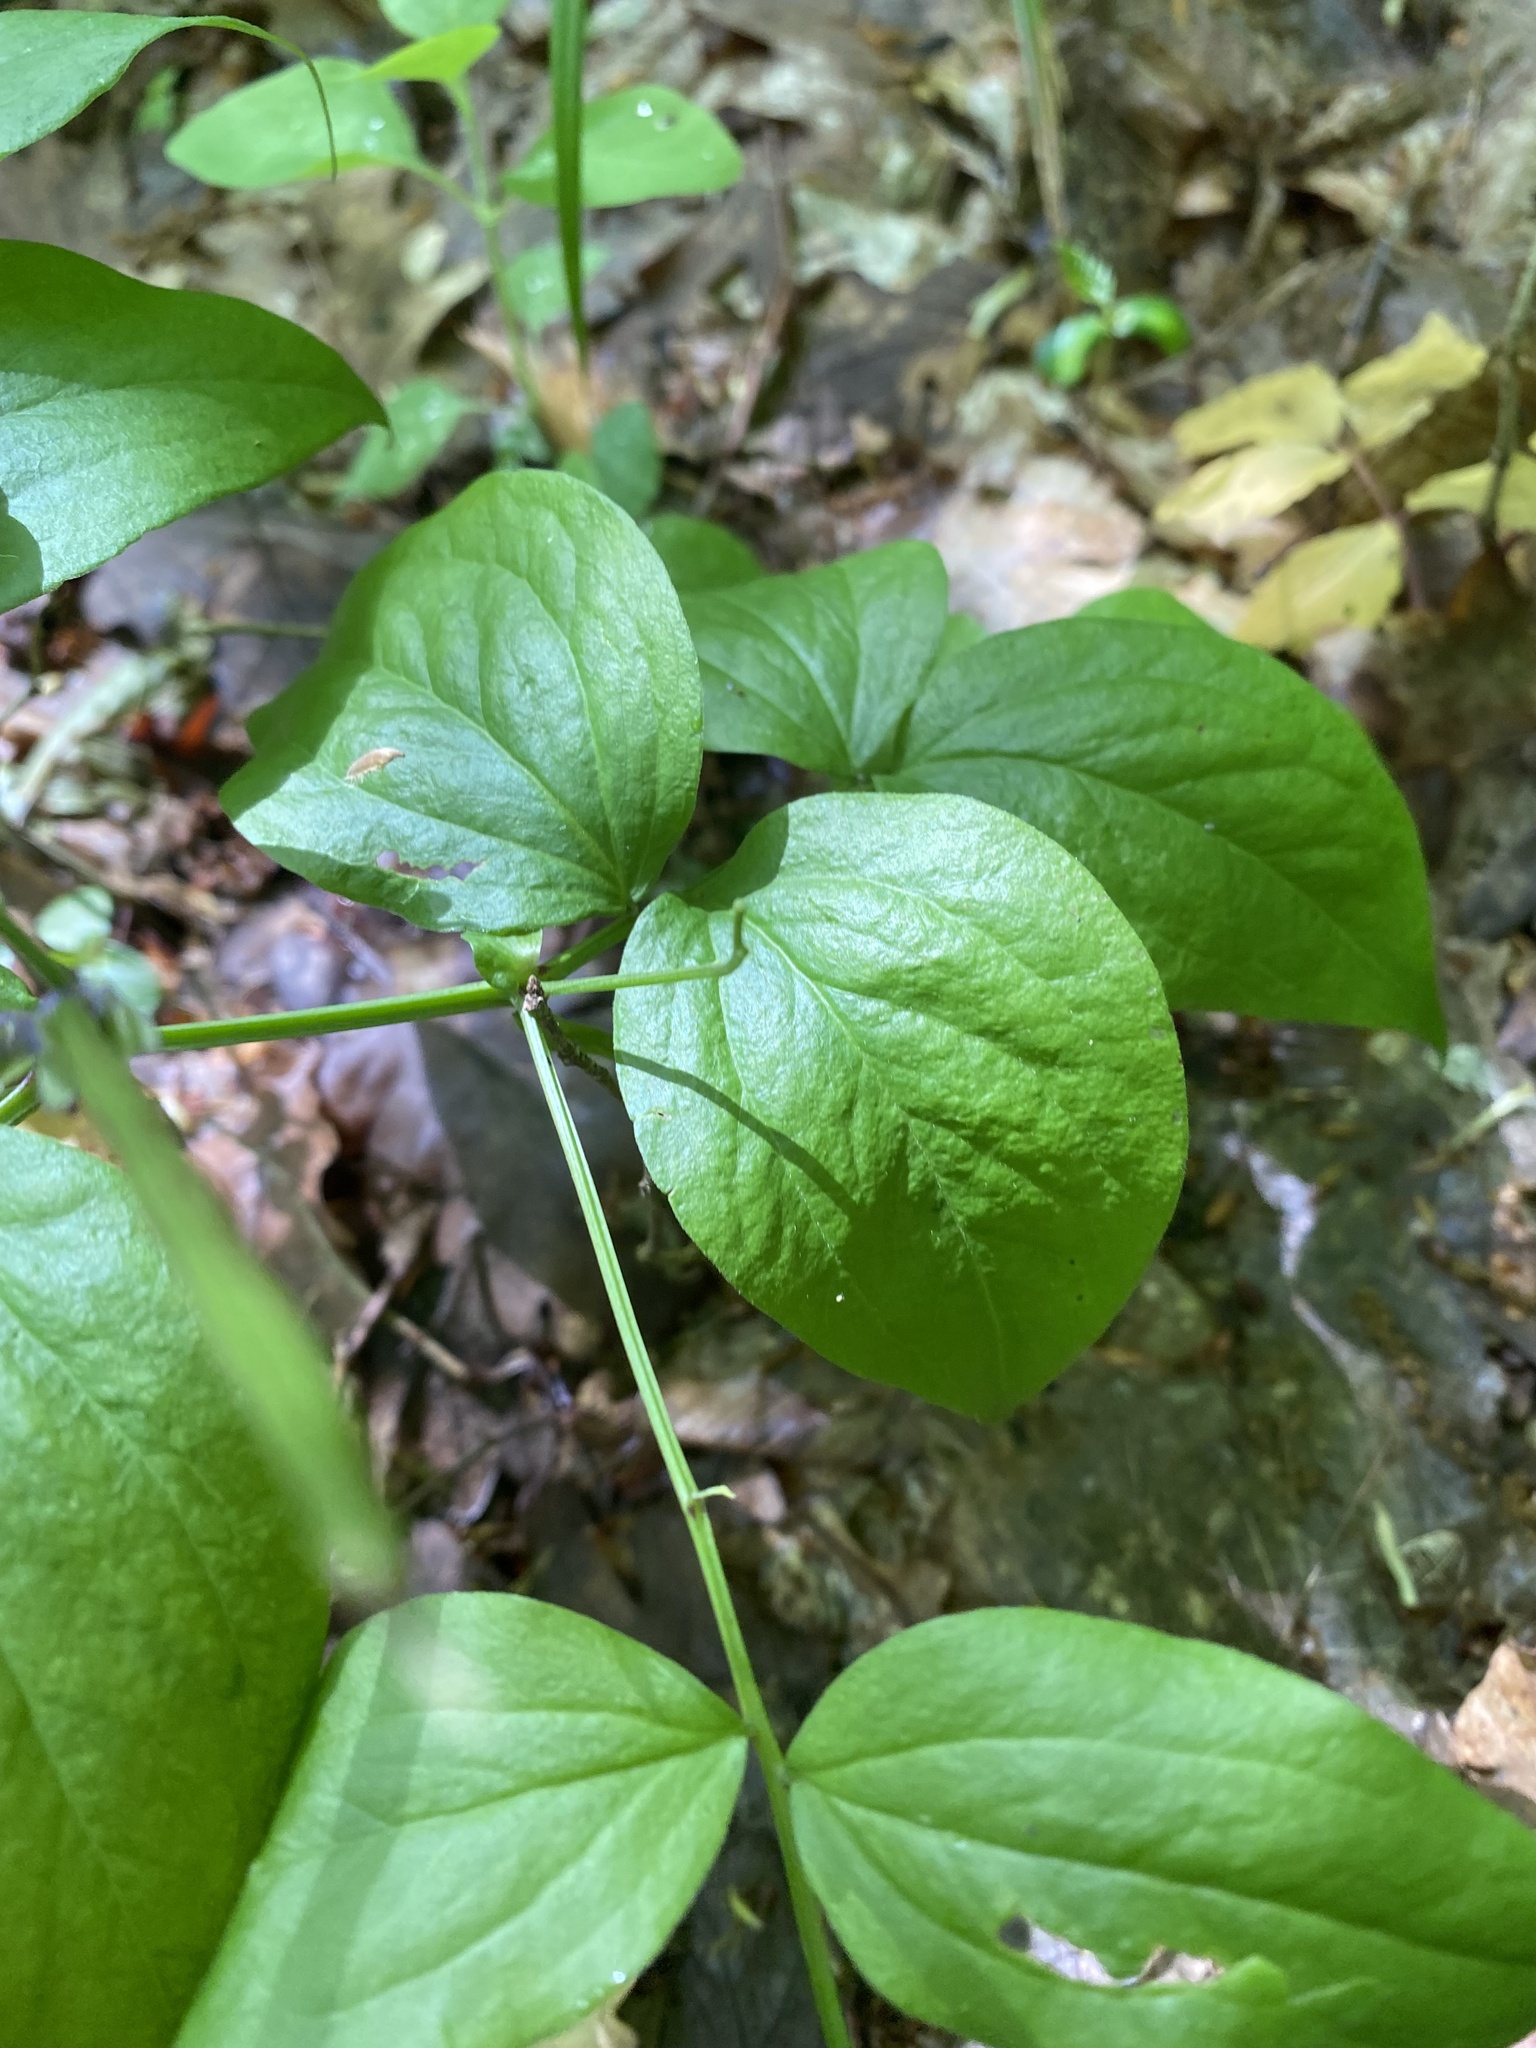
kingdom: Plantae
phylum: Tracheophyta
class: Magnoliopsida
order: Fabales
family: Fabaceae
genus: Lathyrus
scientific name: Lathyrus vernus
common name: Spring pea
